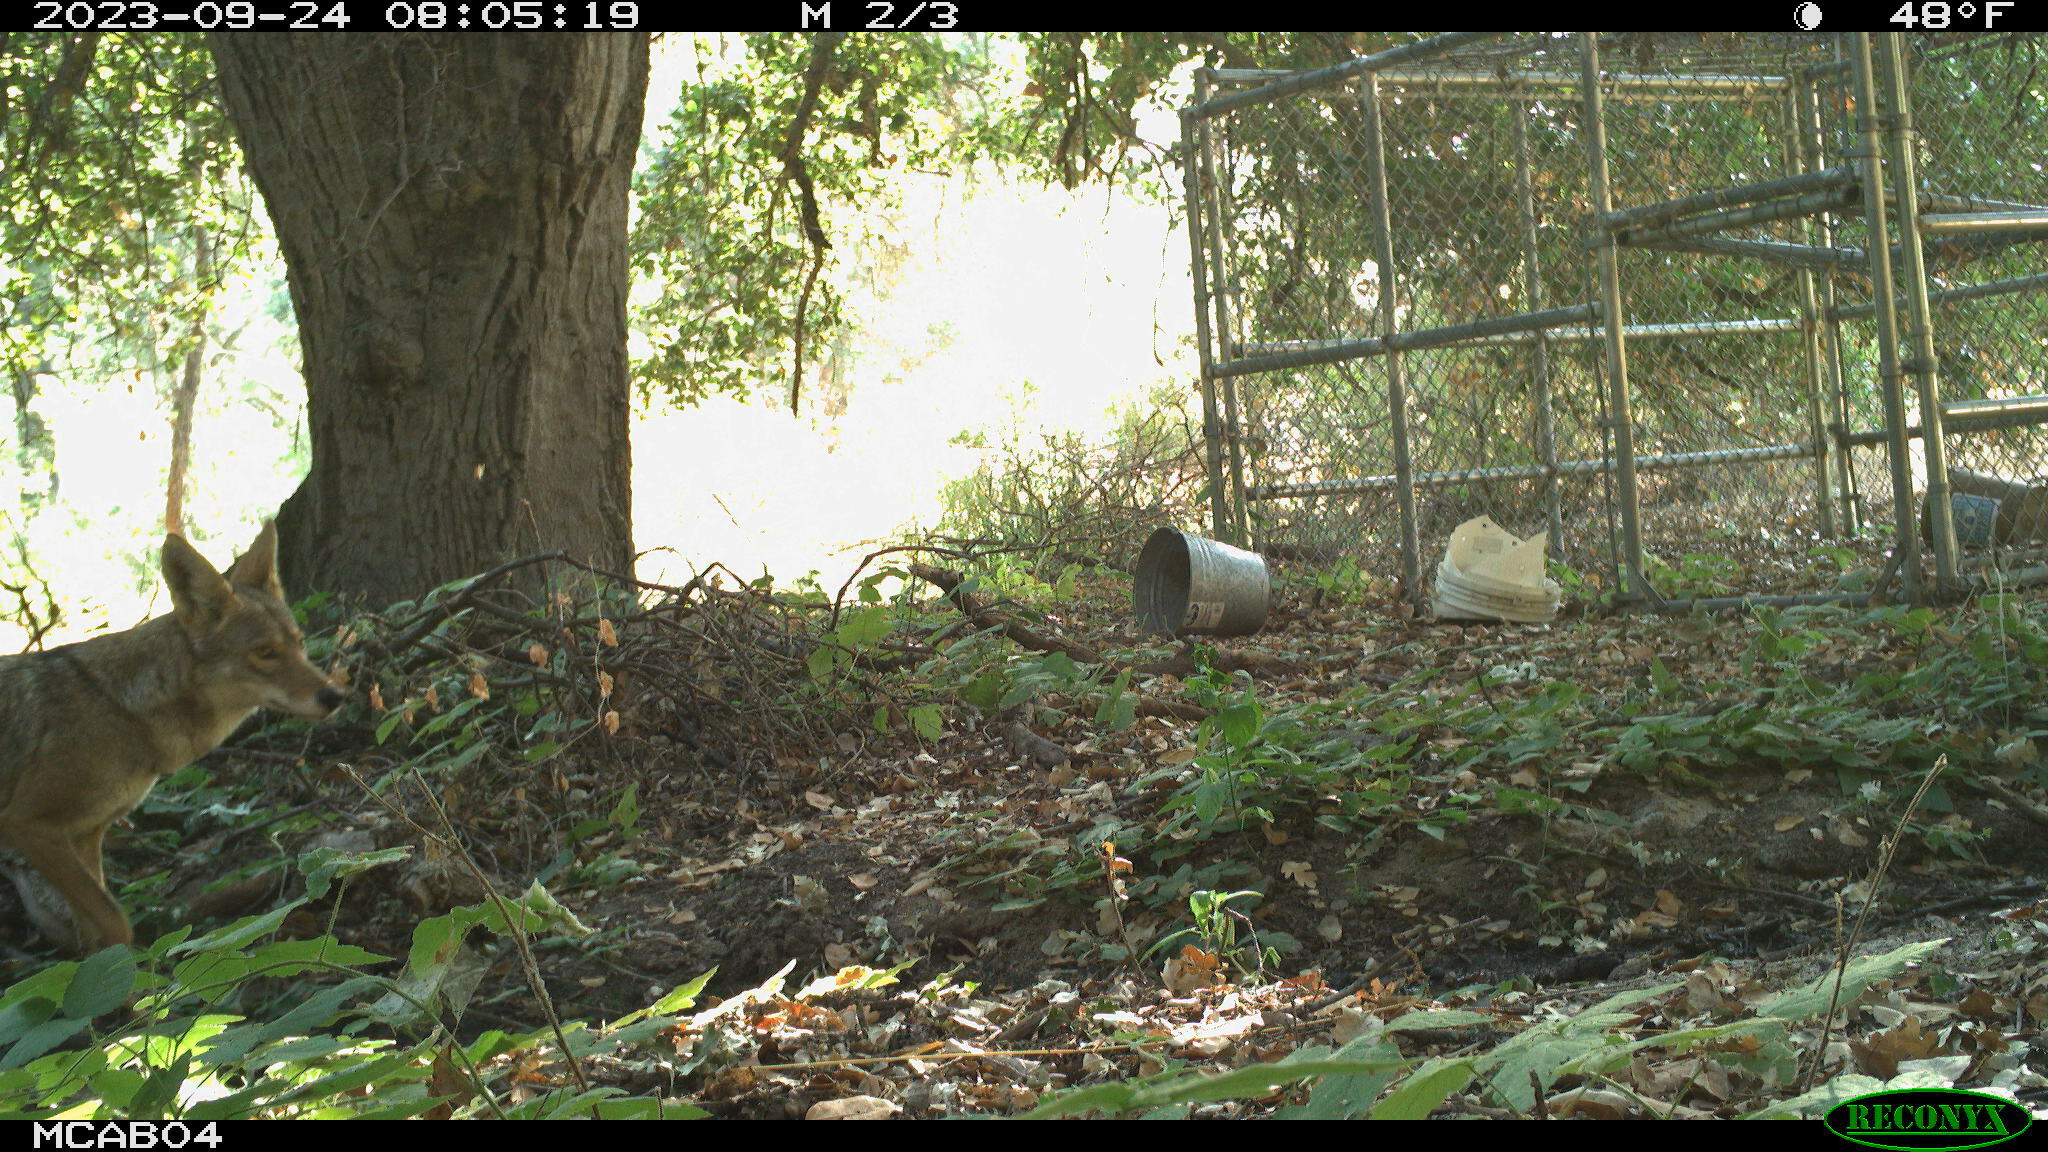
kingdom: Animalia
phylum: Chordata
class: Mammalia
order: Carnivora
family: Canidae
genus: Canis
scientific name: Canis latrans
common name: Coyote
